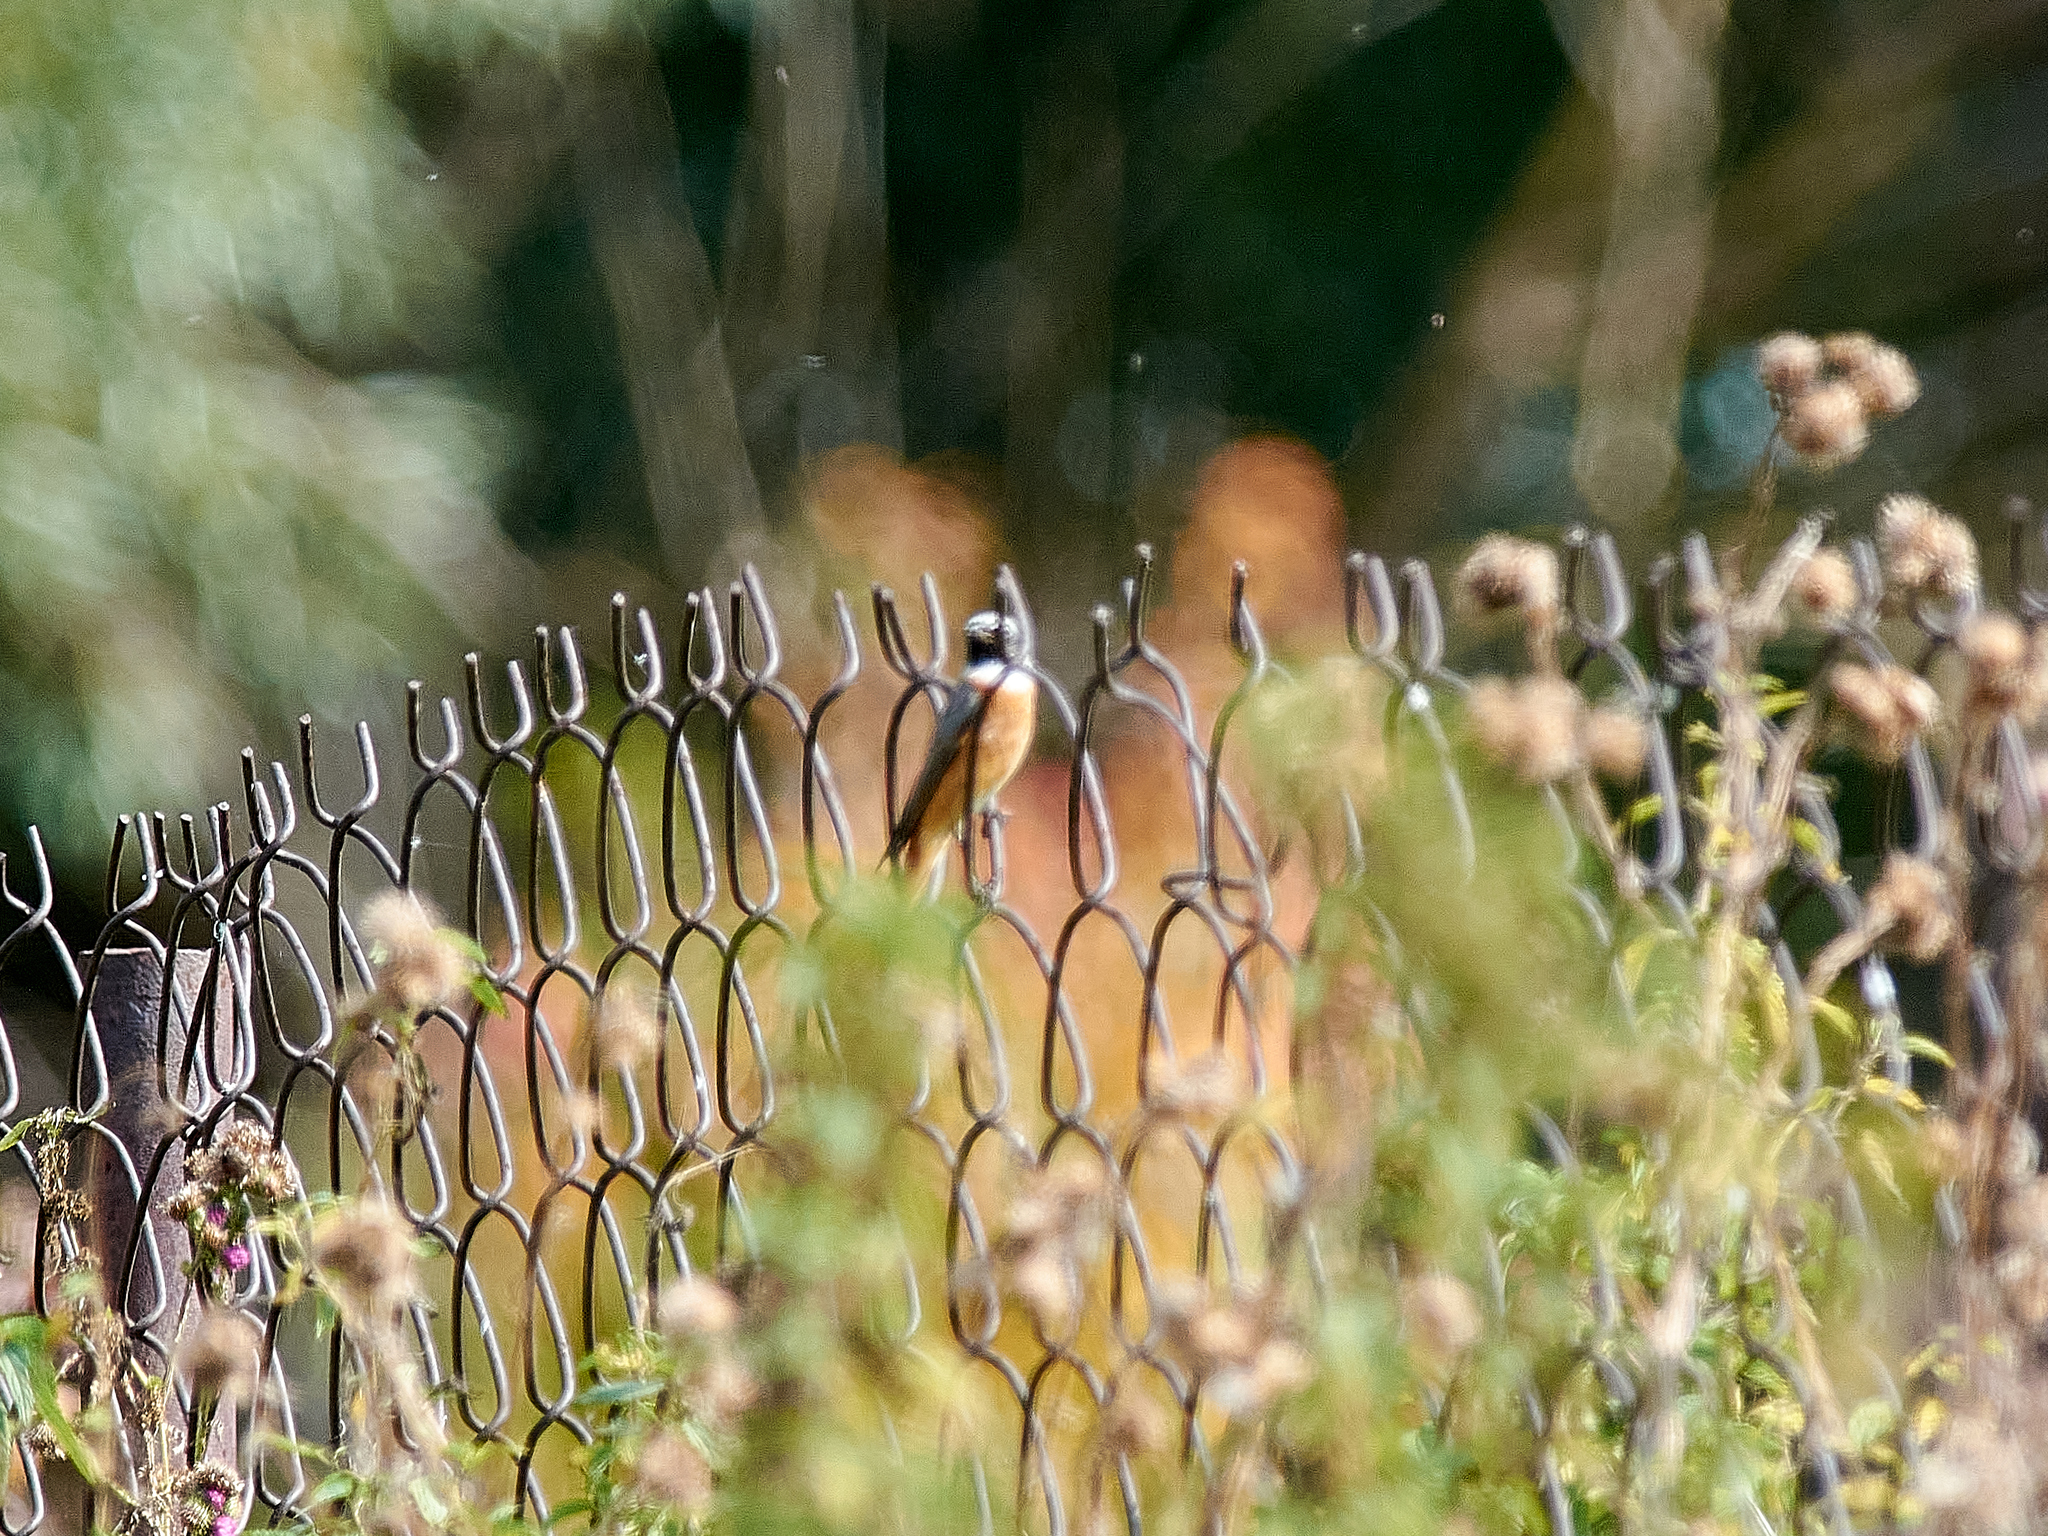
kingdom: Animalia
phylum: Chordata
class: Aves
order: Passeriformes
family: Muscicapidae
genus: Phoenicurus
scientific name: Phoenicurus phoenicurus
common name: Common redstart
